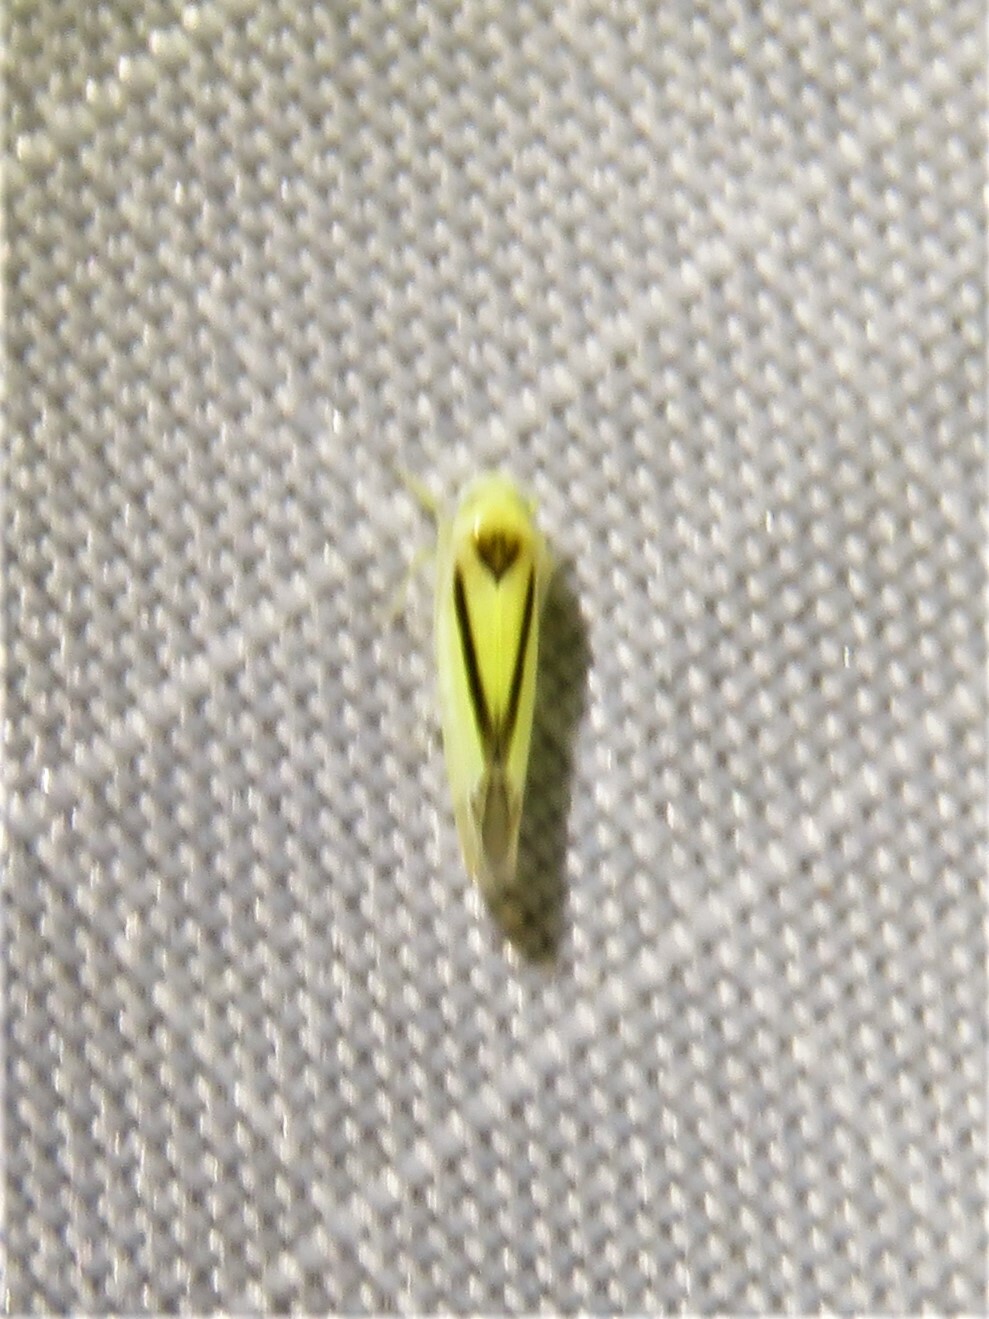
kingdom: Animalia
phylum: Arthropoda
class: Insecta
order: Hemiptera
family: Cicadellidae
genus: Edwardsiana
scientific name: Edwardsiana geometrica
